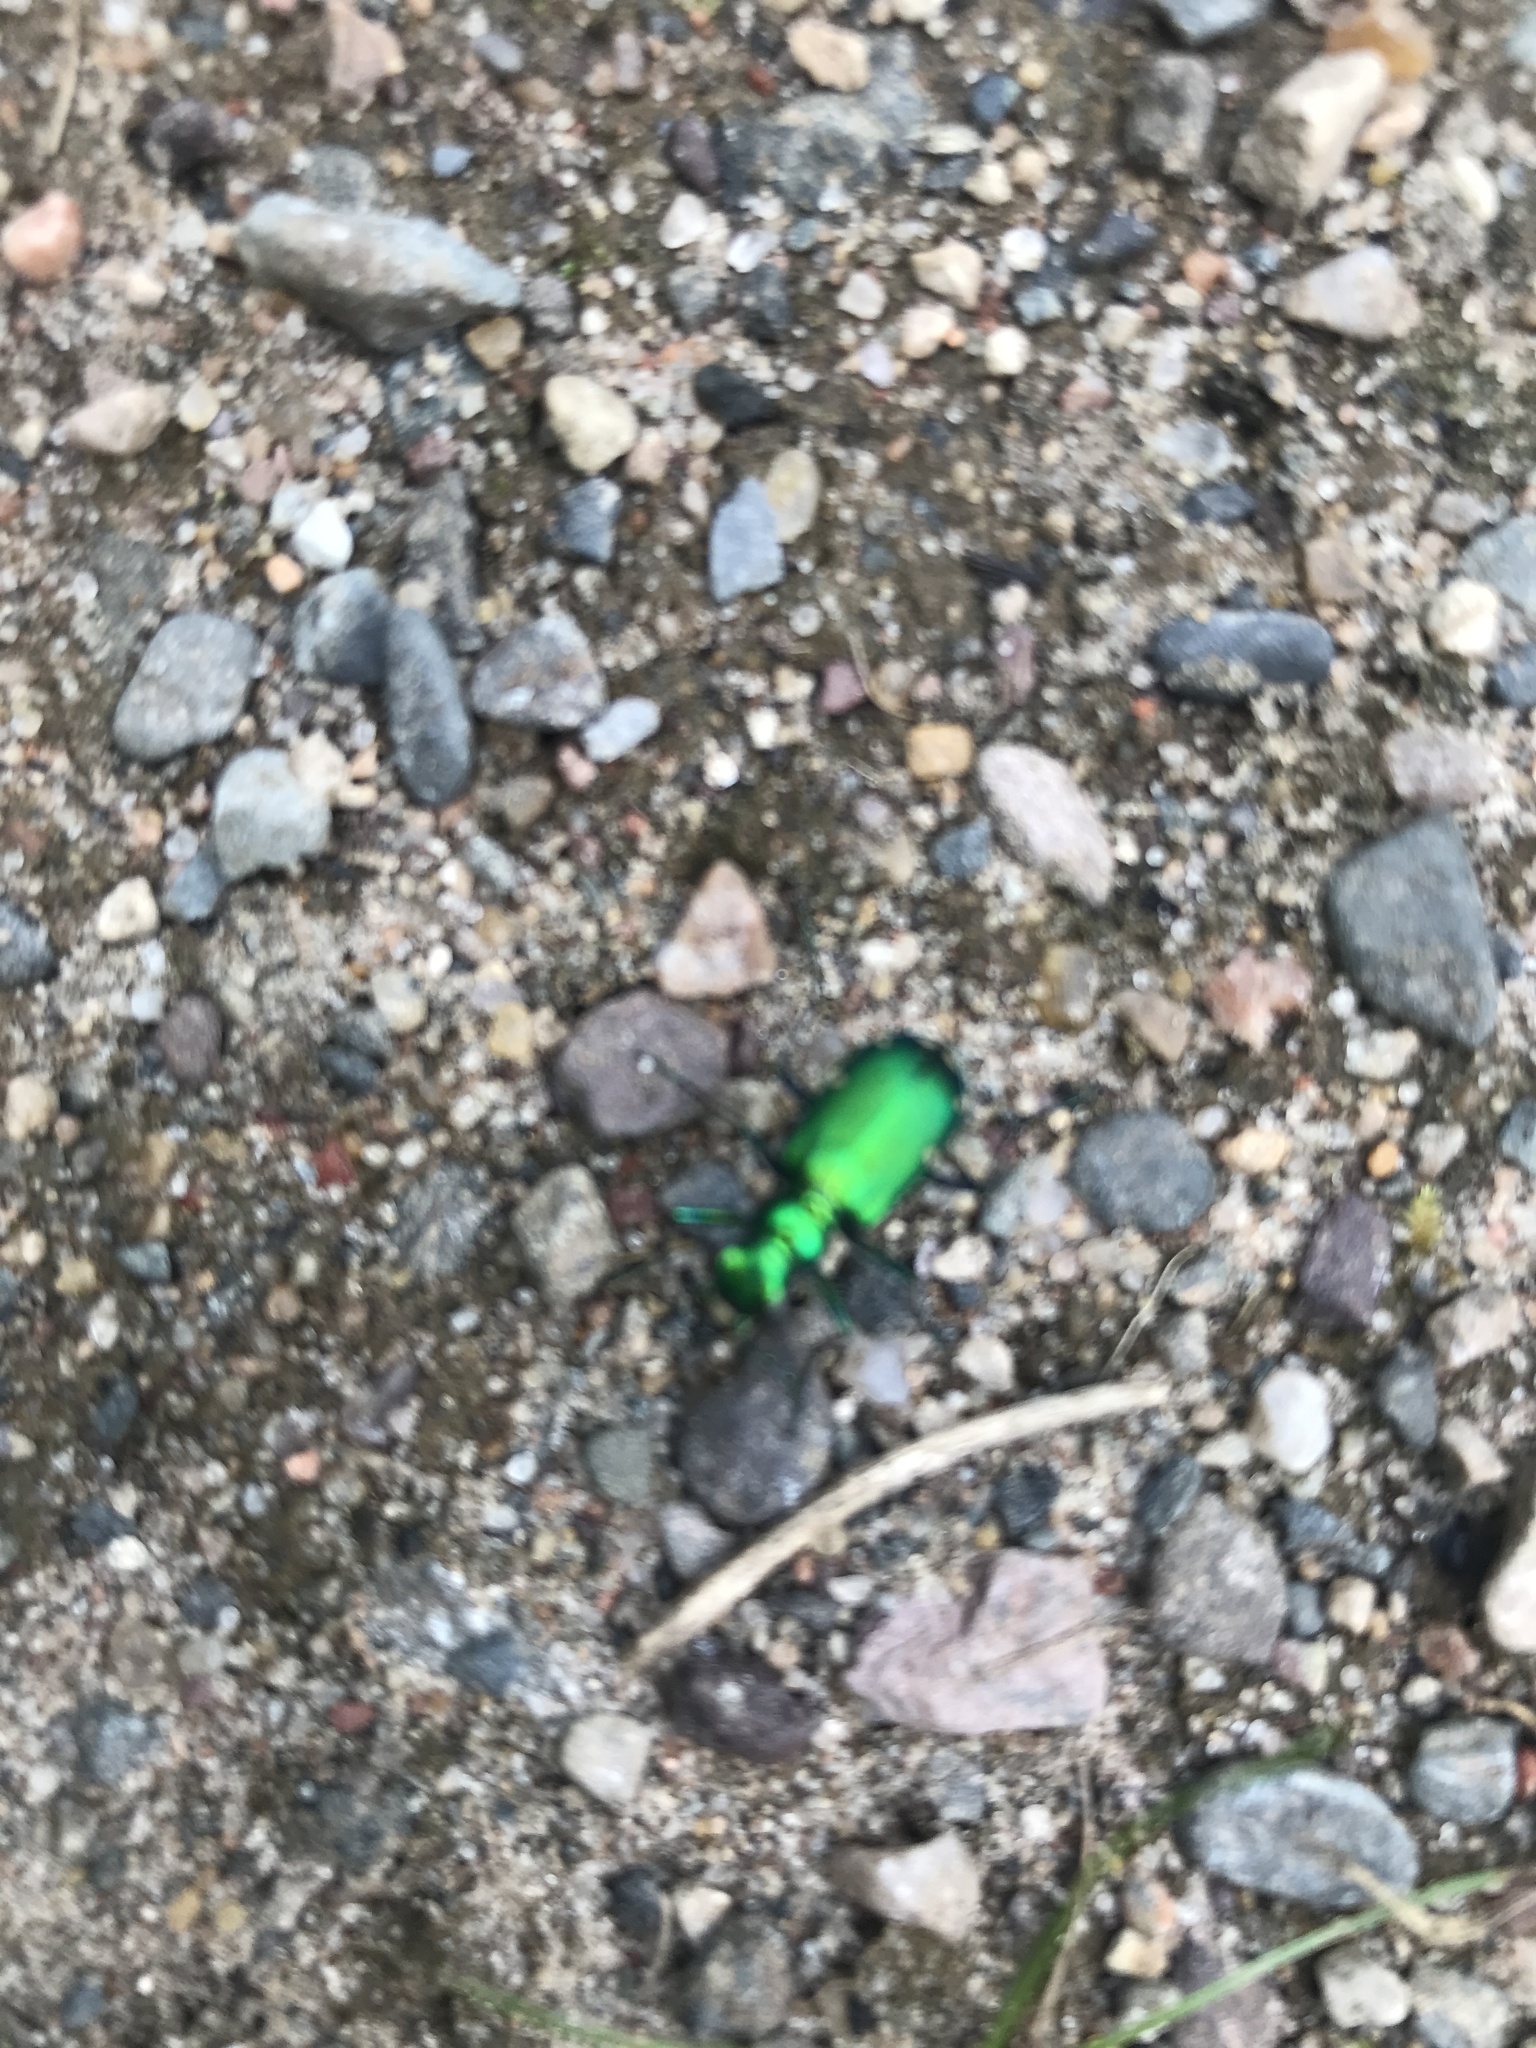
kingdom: Animalia
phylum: Arthropoda
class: Insecta
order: Coleoptera
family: Carabidae
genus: Cicindela
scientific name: Cicindela sexguttata
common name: Six-spotted tiger beetle
